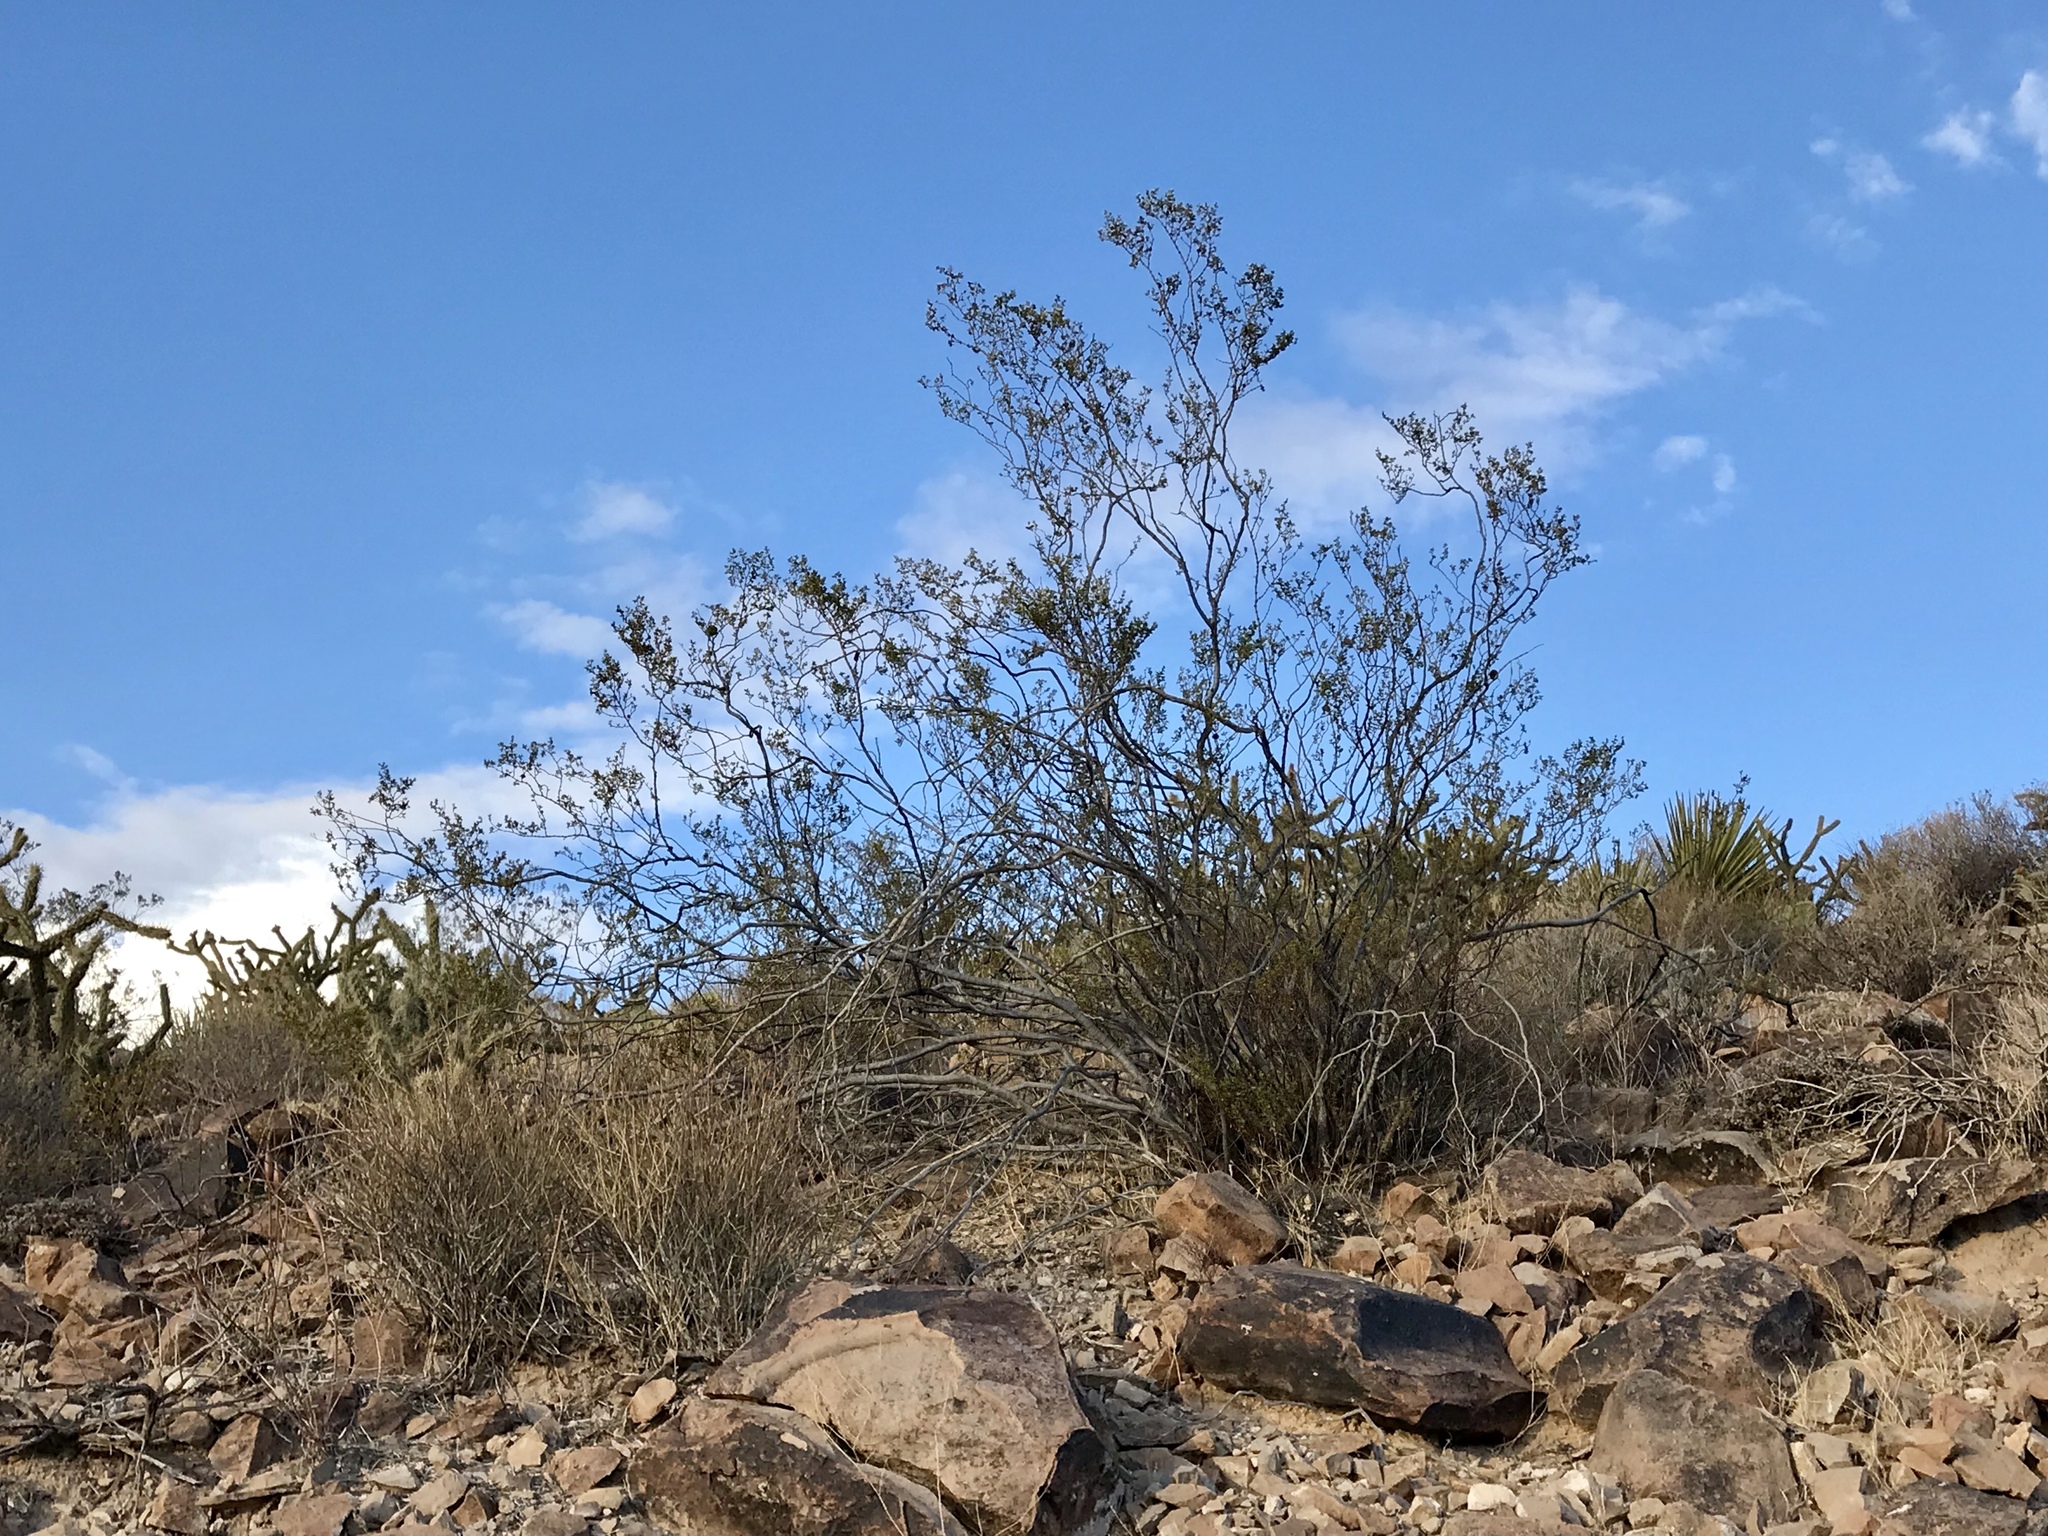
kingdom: Plantae
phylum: Tracheophyta
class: Magnoliopsida
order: Zygophyllales
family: Zygophyllaceae
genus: Larrea
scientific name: Larrea tridentata
